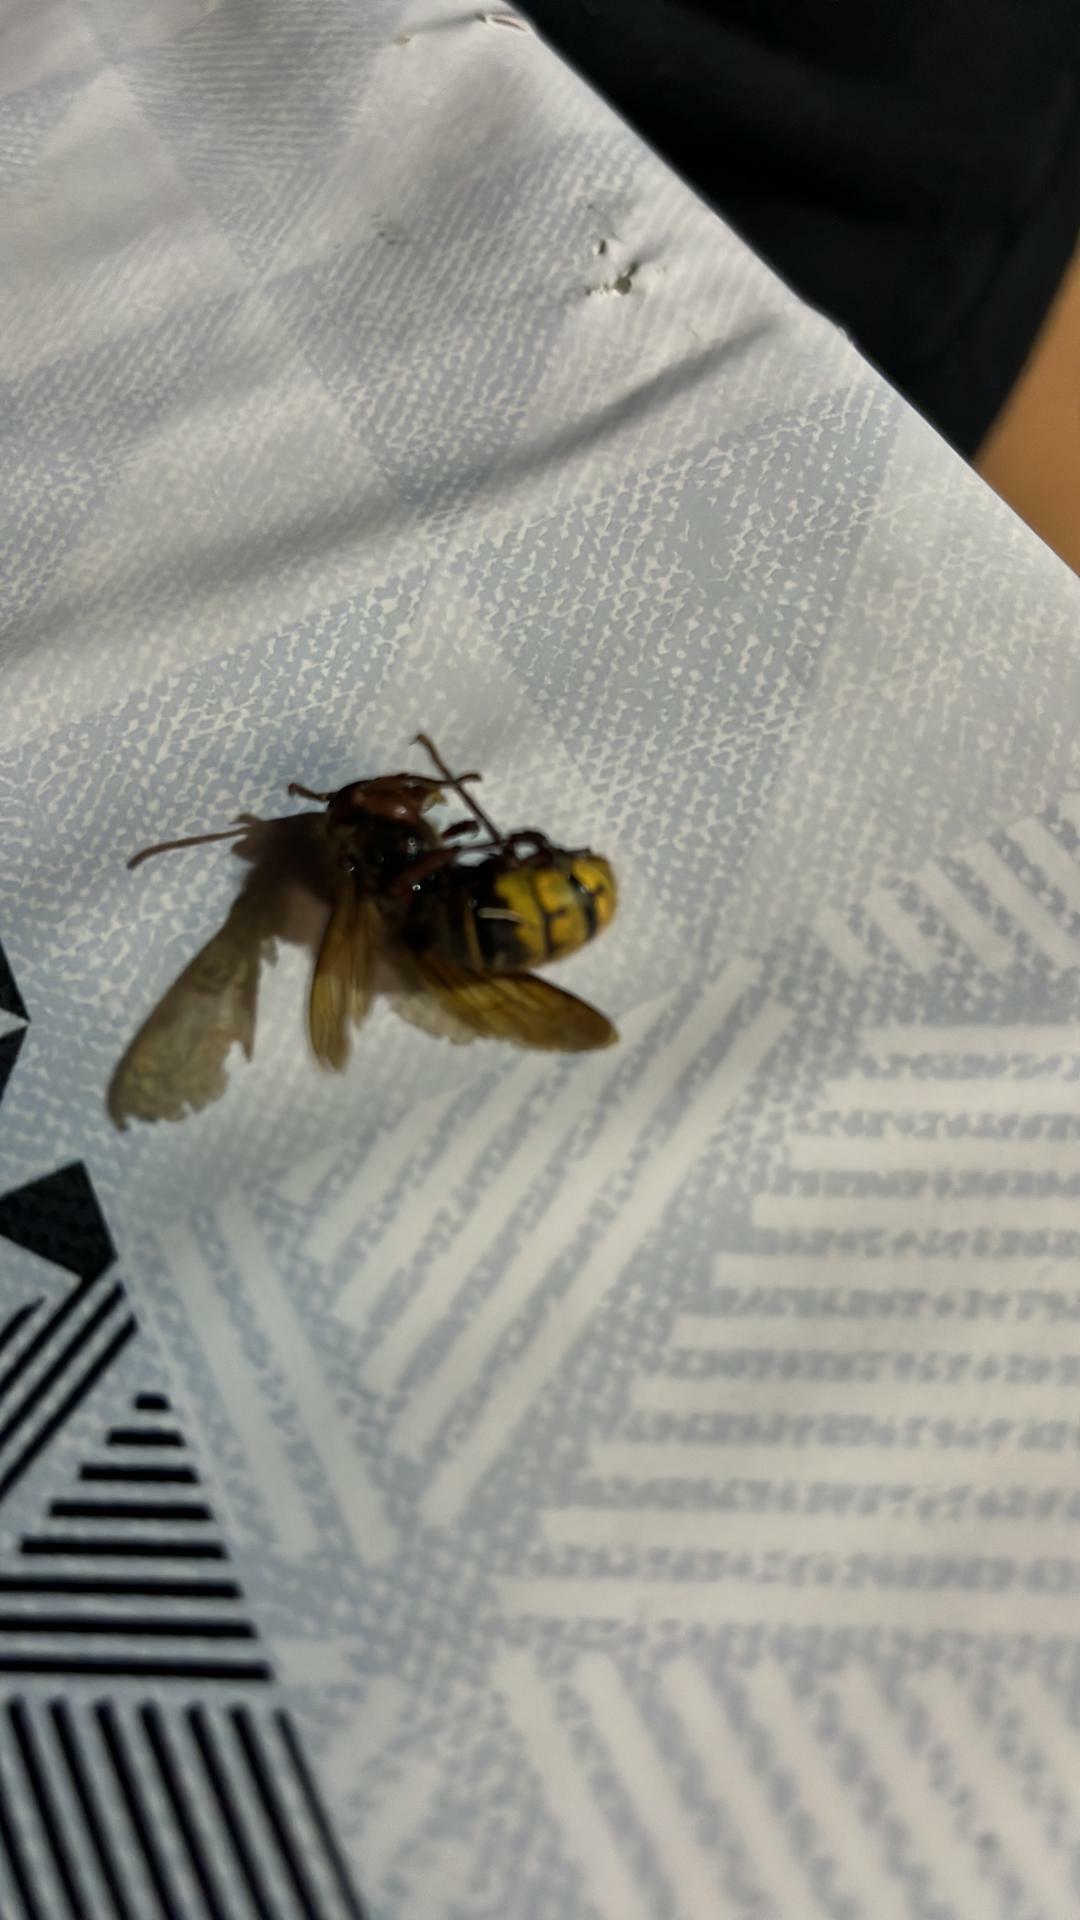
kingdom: Animalia
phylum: Arthropoda
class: Insecta
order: Hymenoptera
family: Vespidae
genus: Vespa
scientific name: Vespa crabro
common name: Hornet
